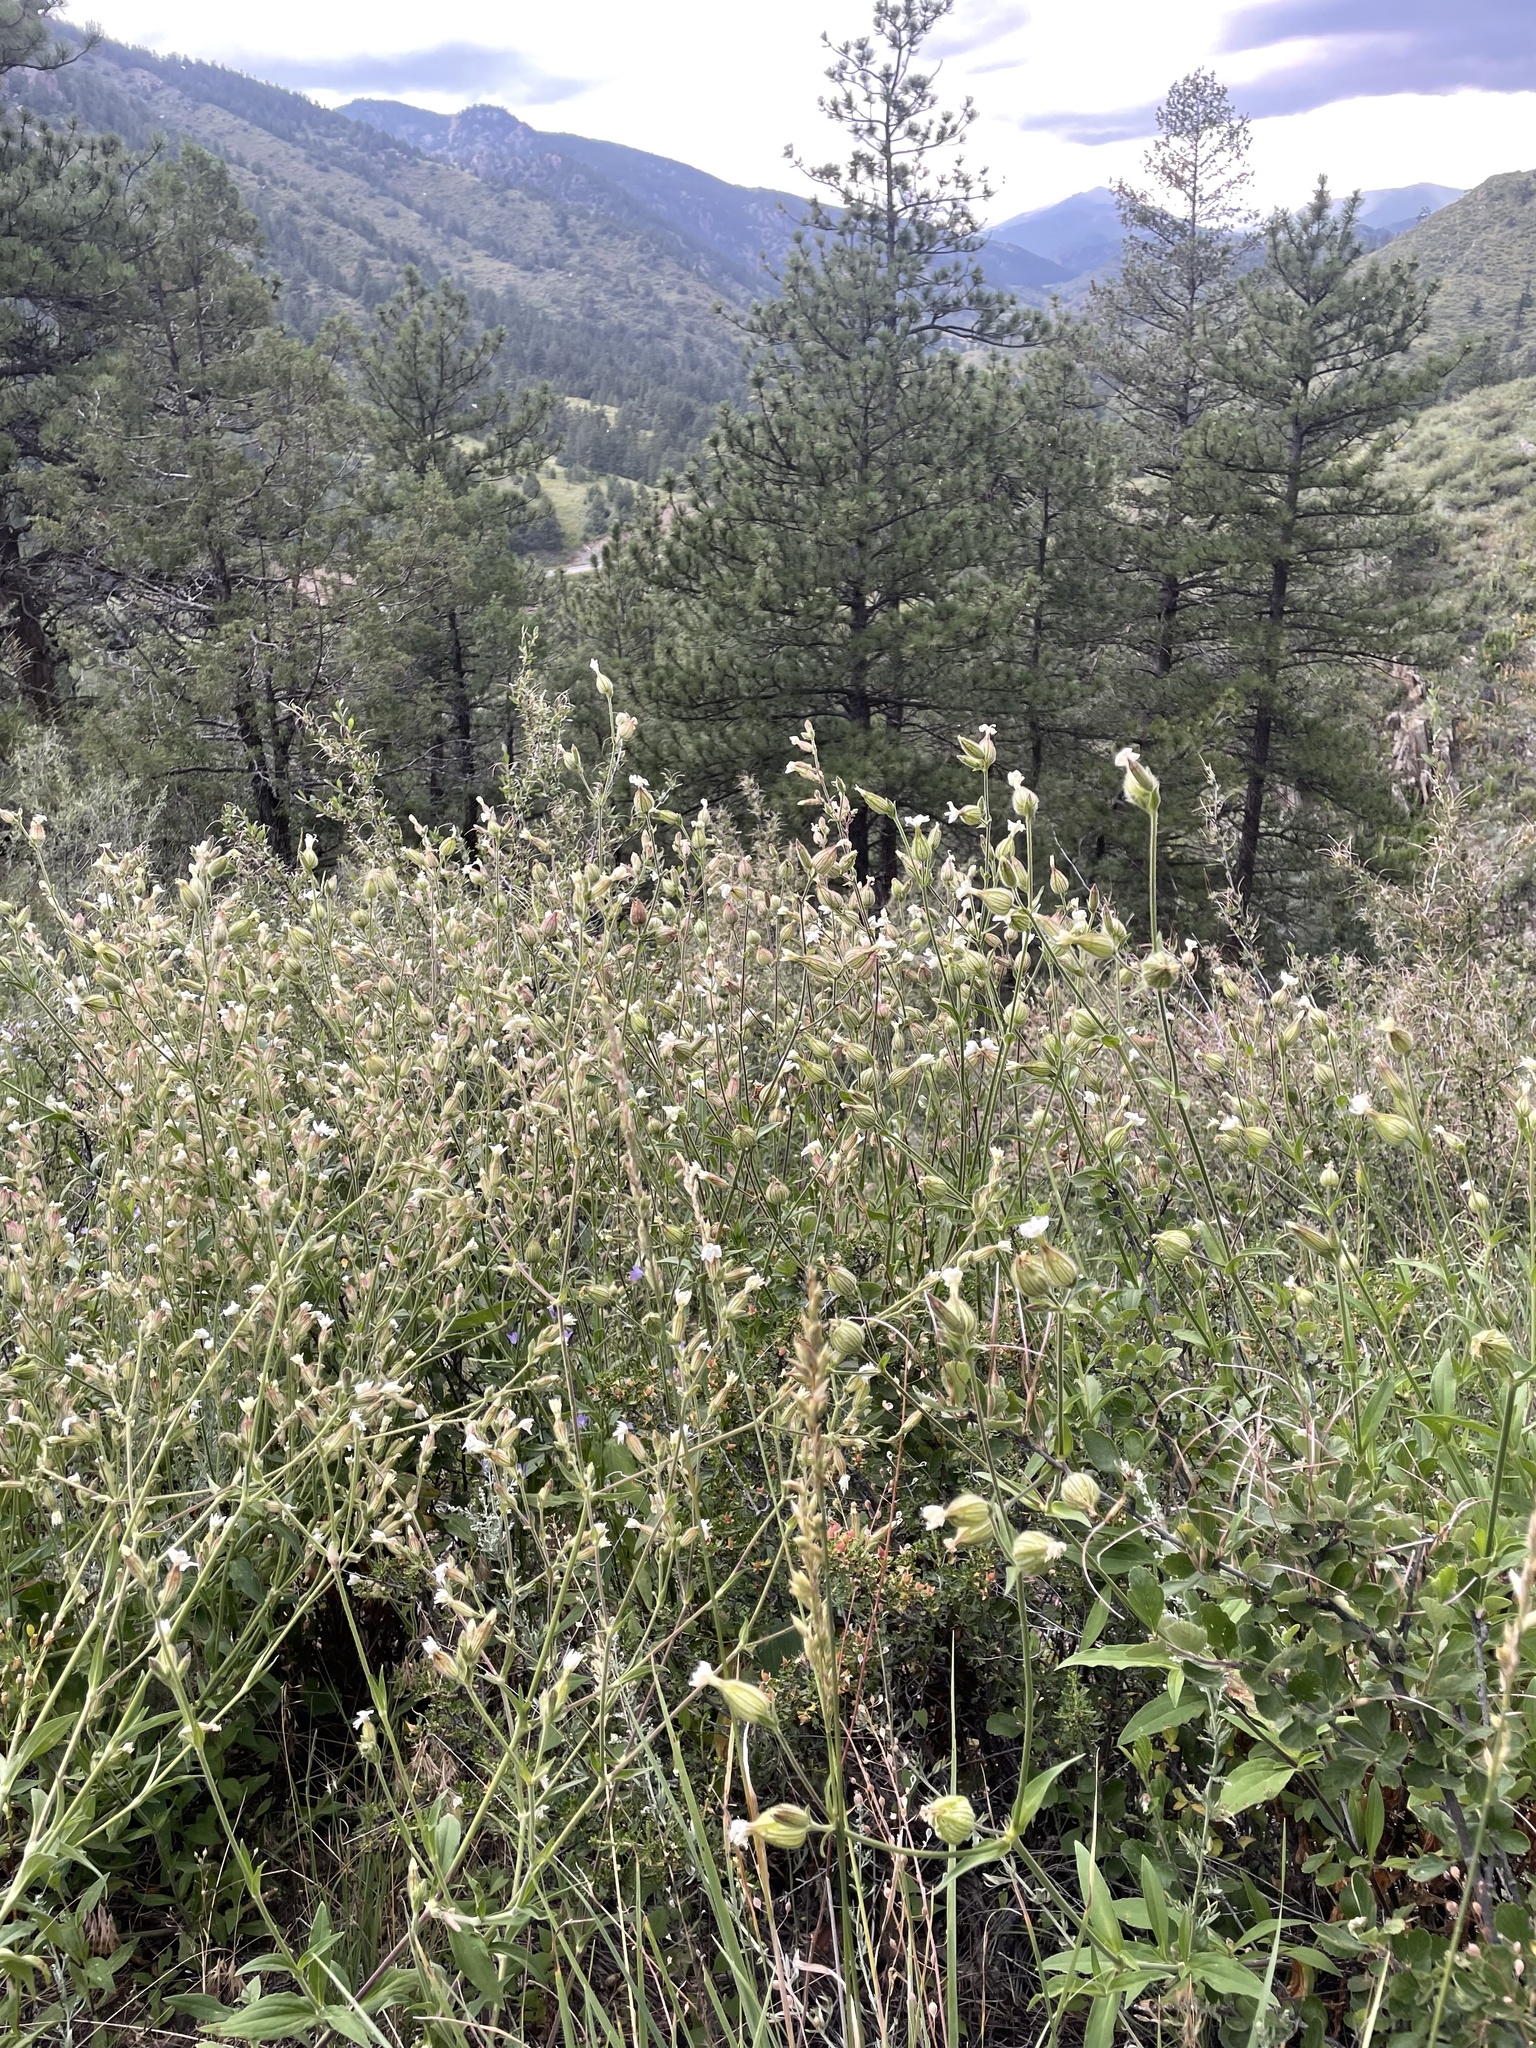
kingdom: Plantae
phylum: Tracheophyta
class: Magnoliopsida
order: Caryophyllales
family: Caryophyllaceae
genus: Silene
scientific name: Silene latifolia
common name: White campion
